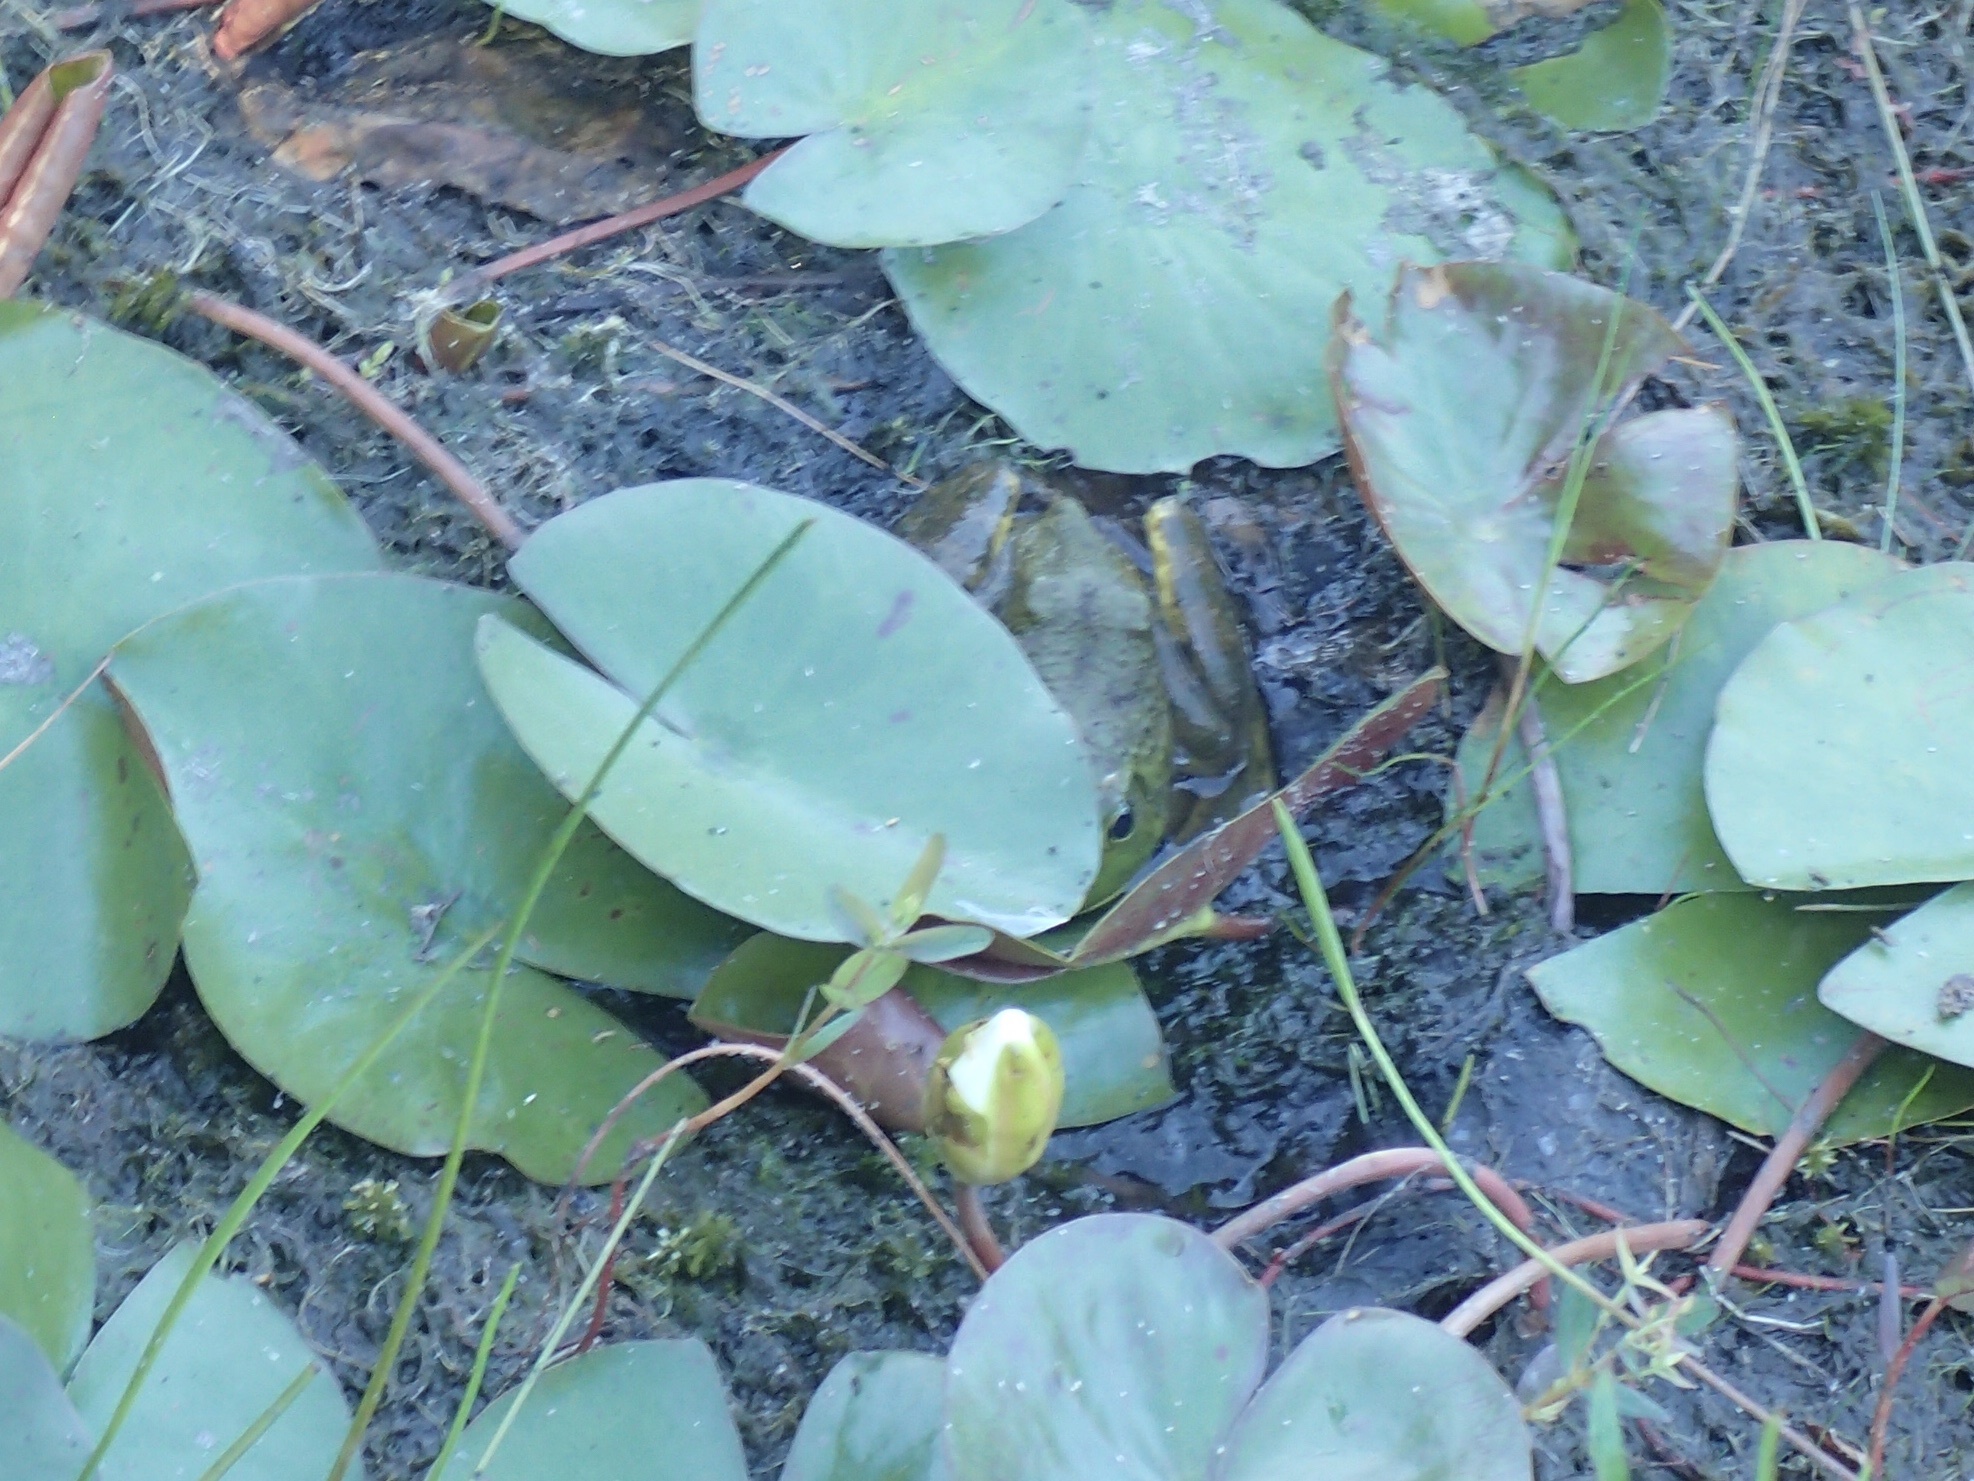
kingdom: Animalia
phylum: Chordata
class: Amphibia
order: Anura
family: Ranidae
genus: Lithobates
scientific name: Lithobates catesbeianus
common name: American bullfrog
